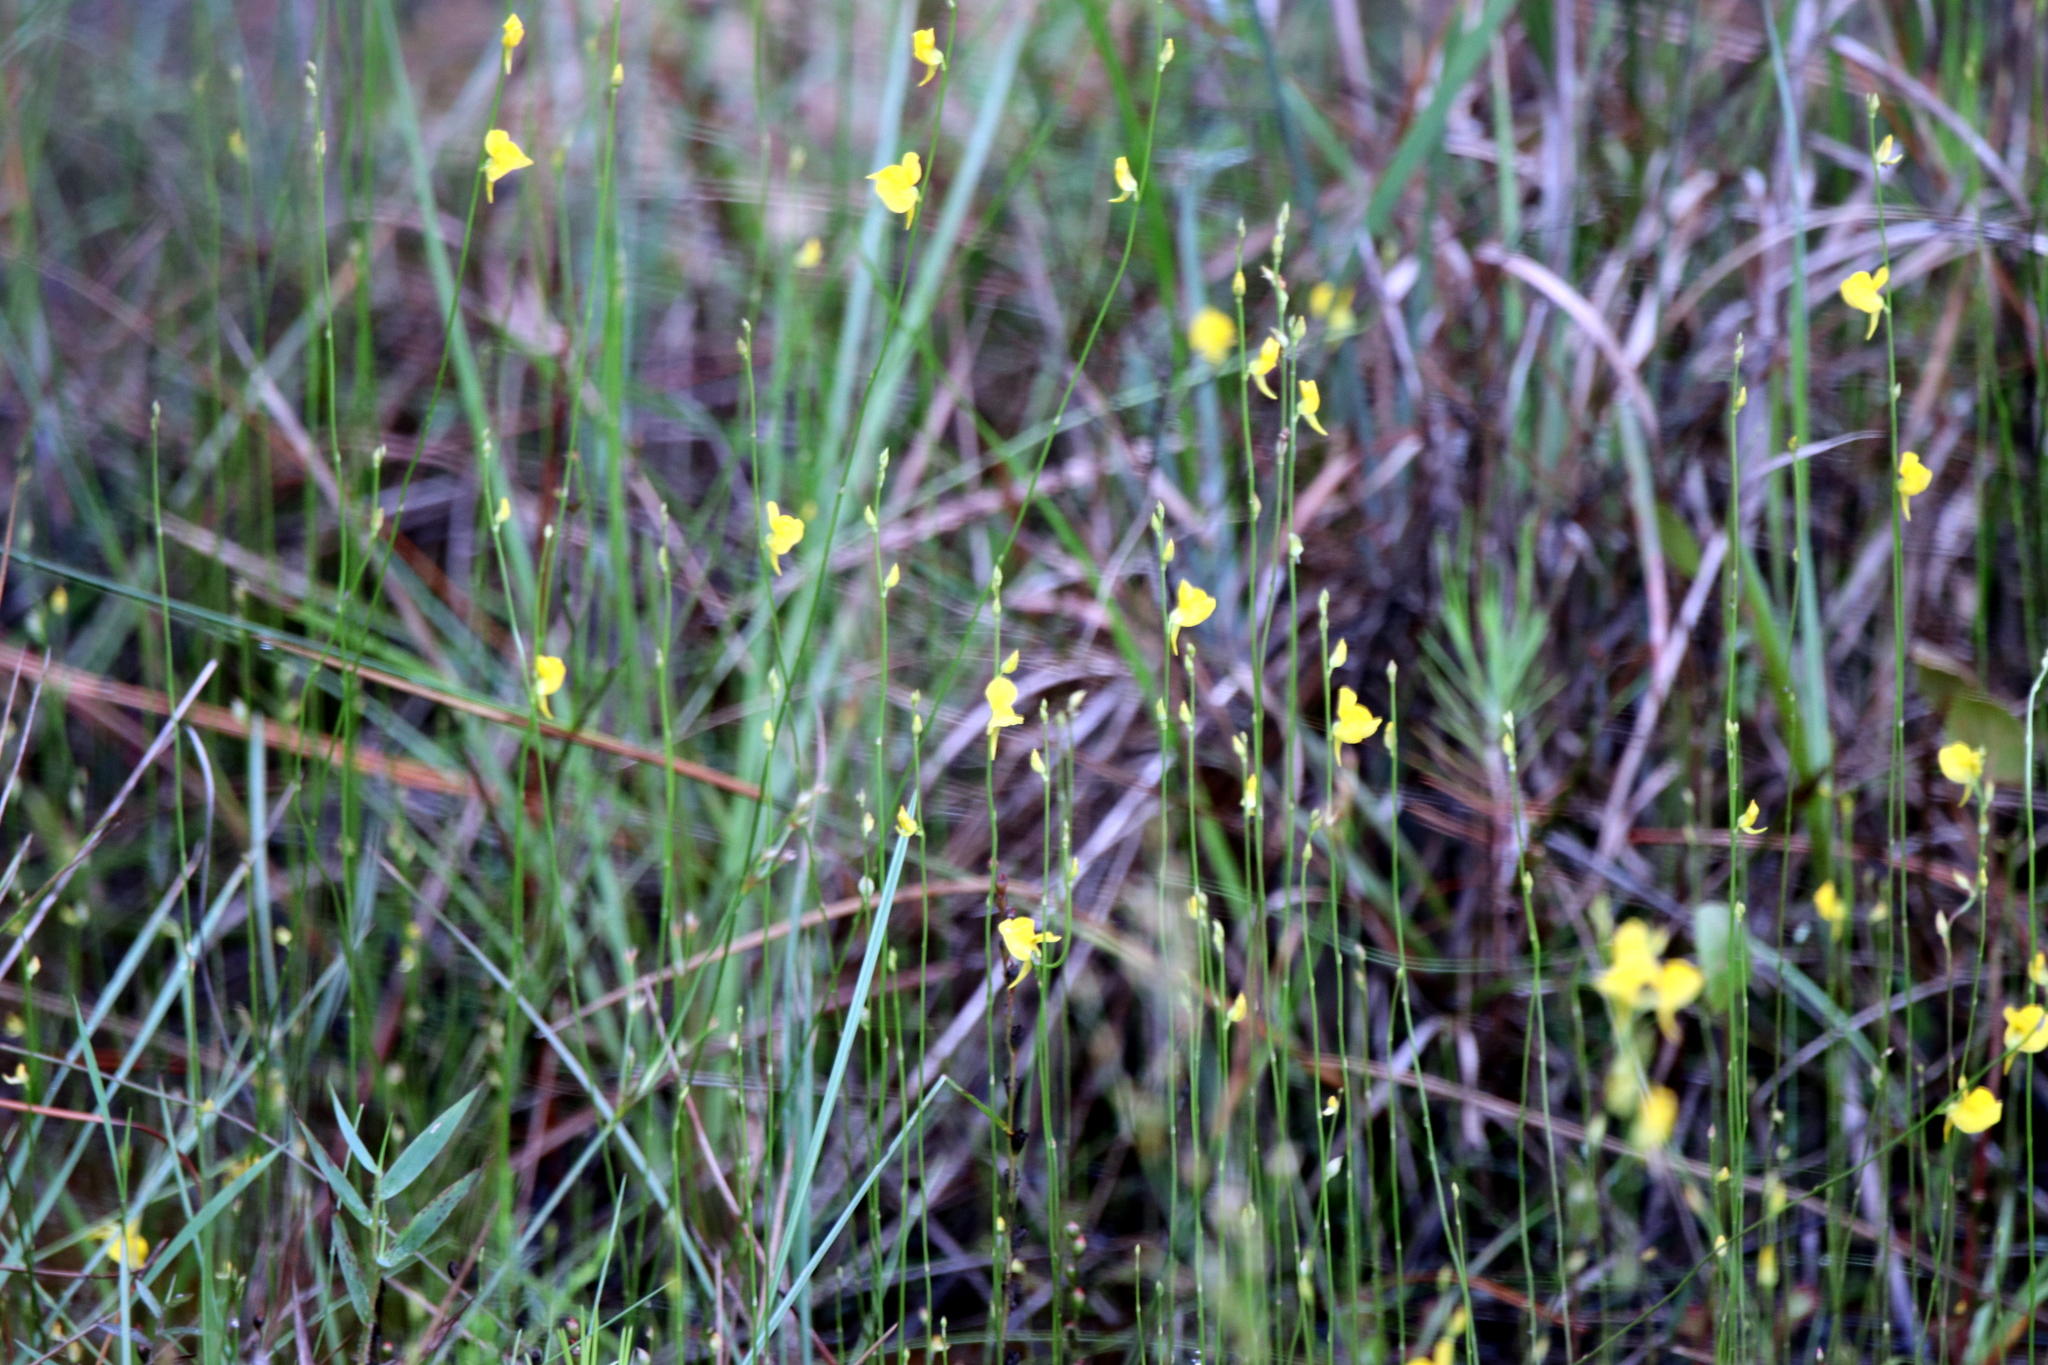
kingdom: Plantae
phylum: Tracheophyta
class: Magnoliopsida
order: Lamiales
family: Lentibulariaceae
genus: Utricularia
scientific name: Utricularia juncea
